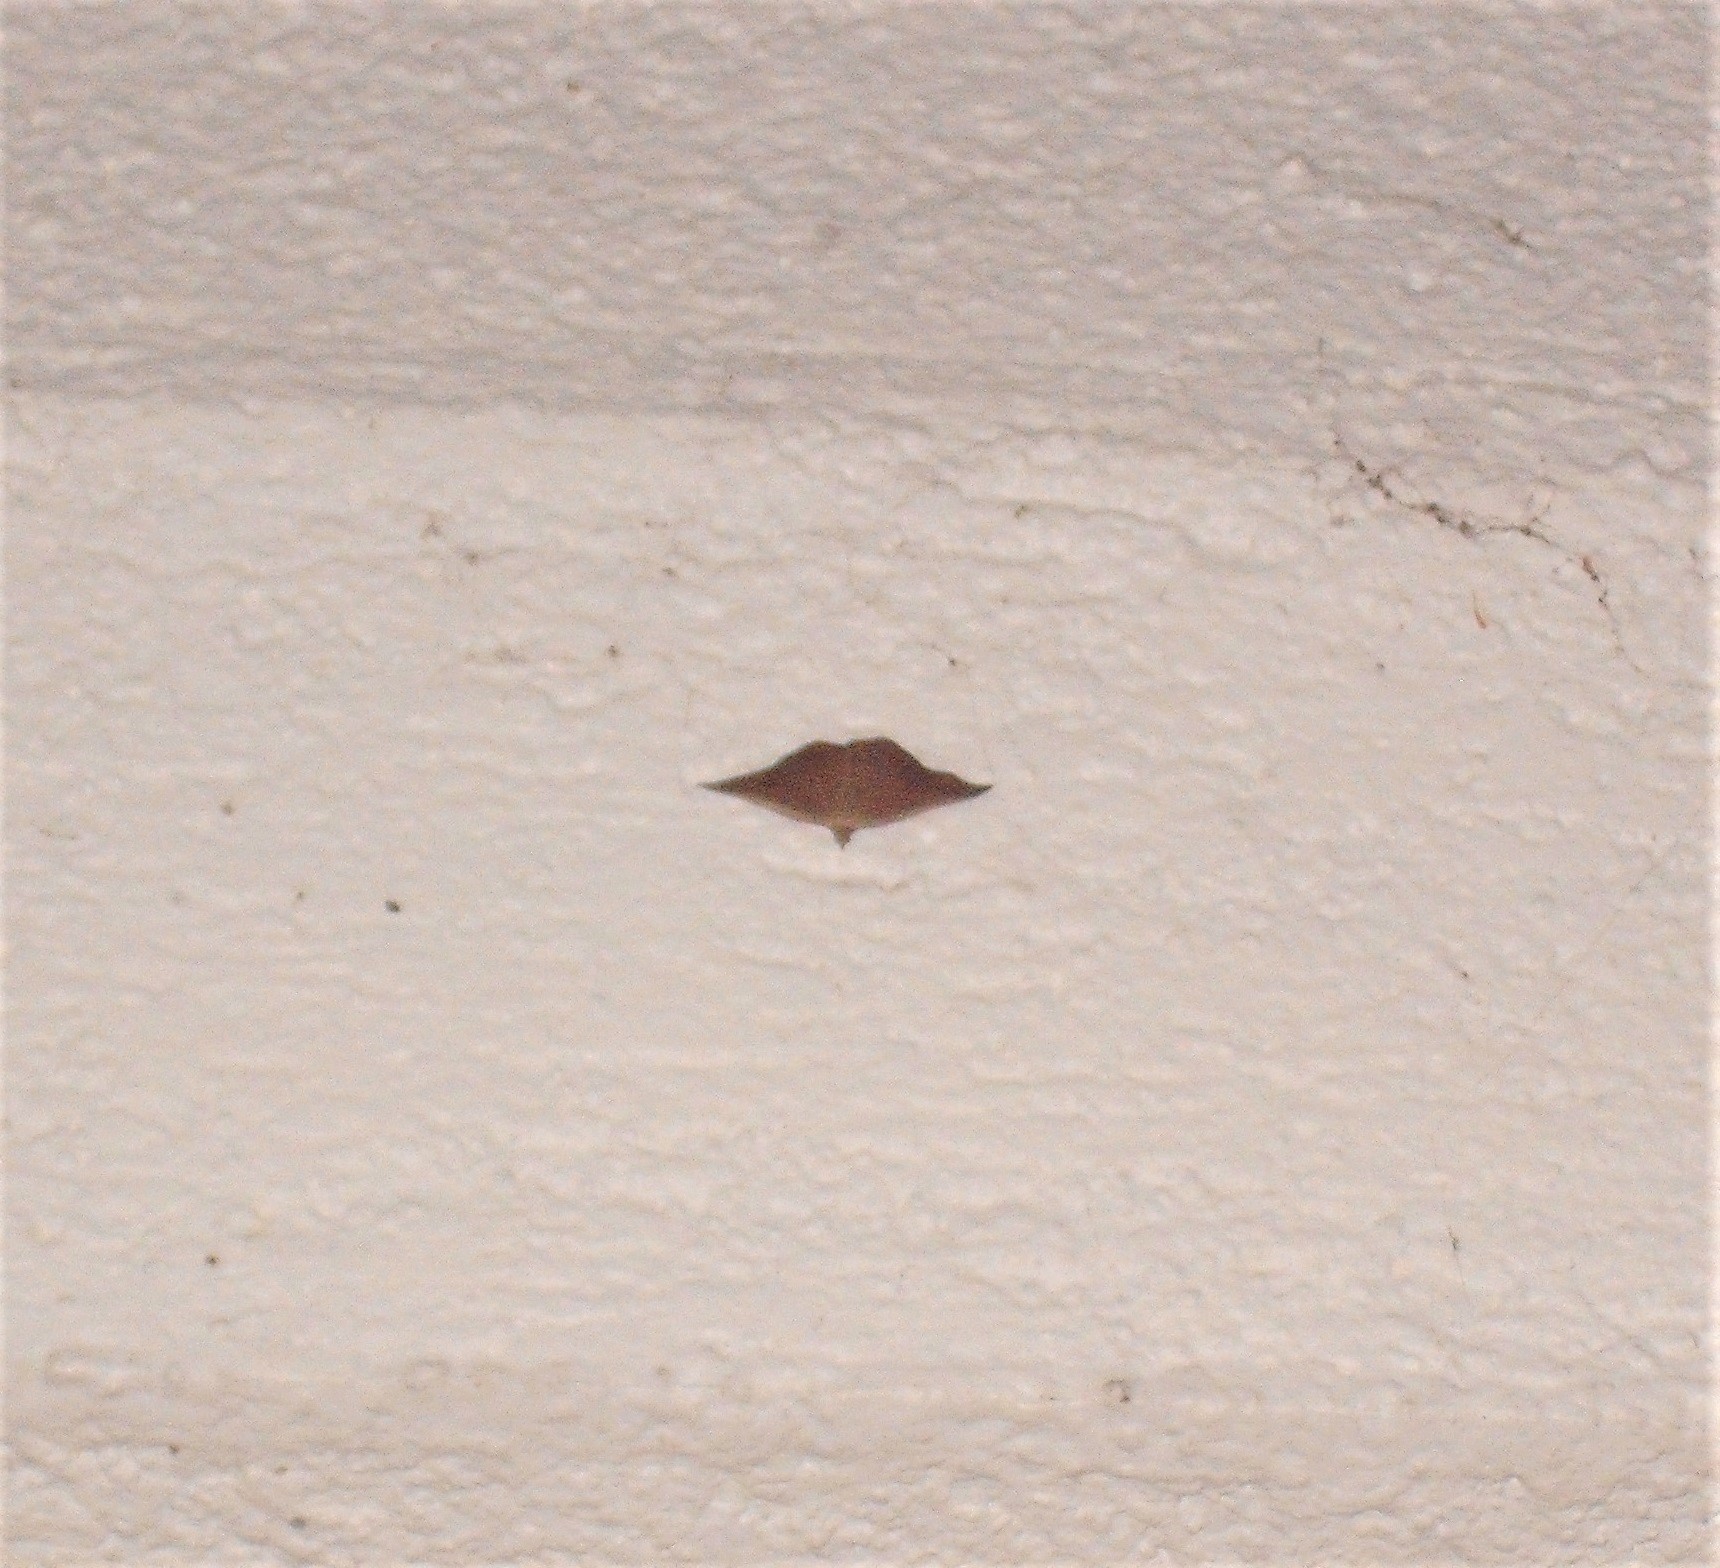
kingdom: Animalia
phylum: Arthropoda
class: Insecta
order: Lepidoptera
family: Geometridae
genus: Sarisa
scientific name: Sarisa muriferata
